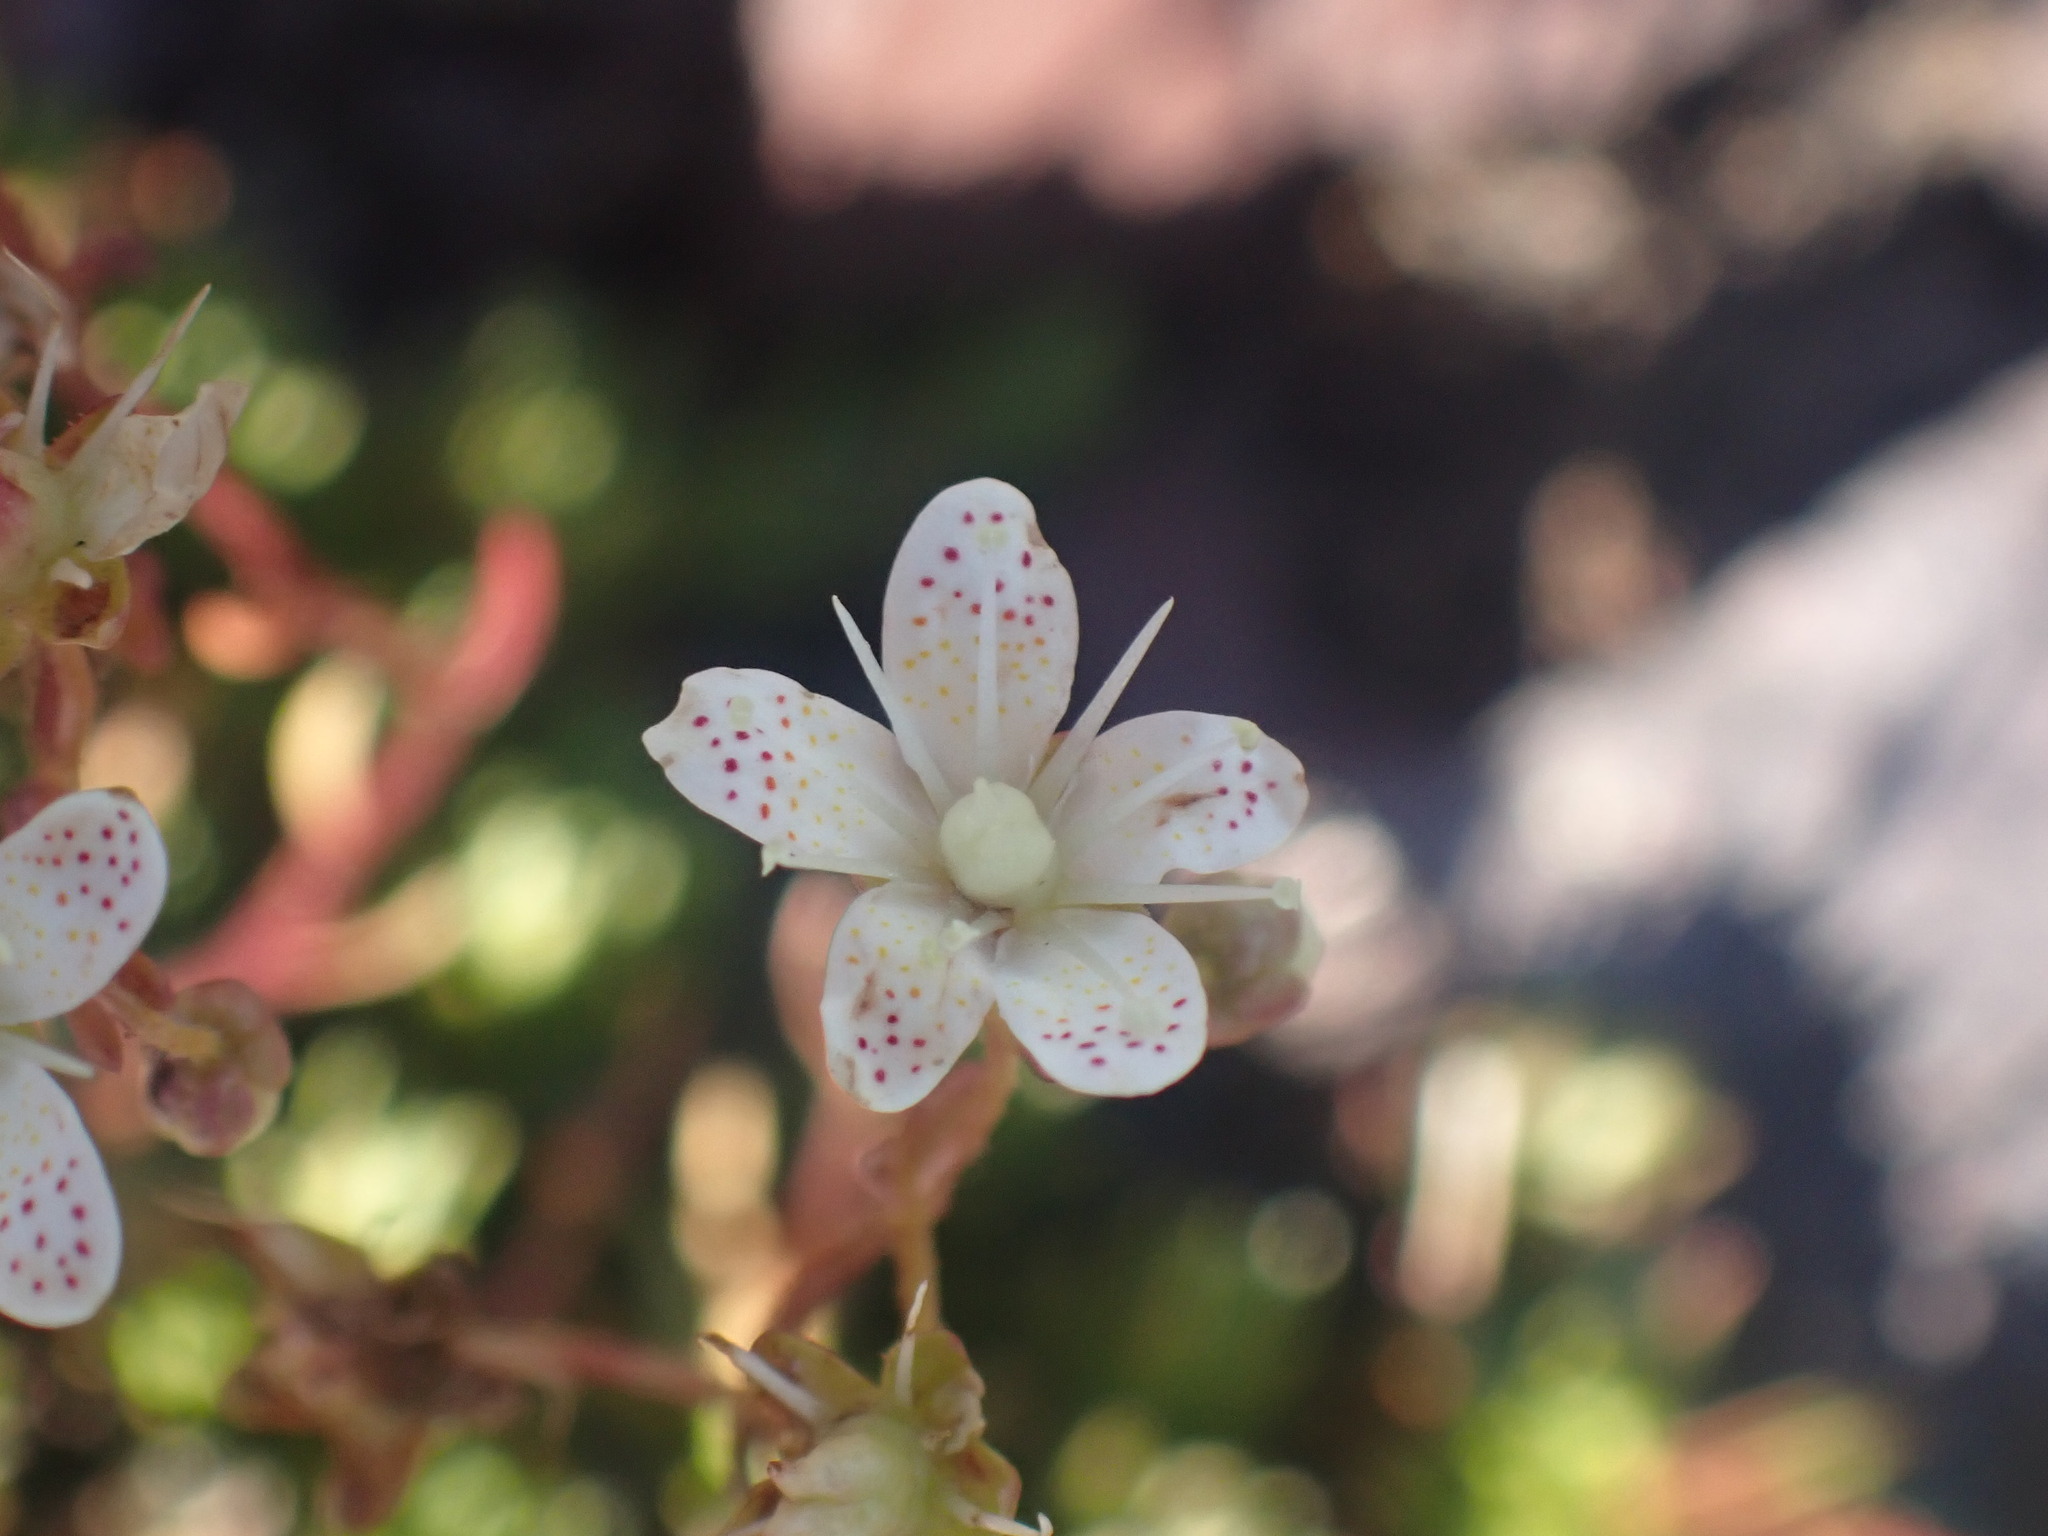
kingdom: Plantae
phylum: Tracheophyta
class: Magnoliopsida
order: Saxifragales
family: Saxifragaceae
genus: Saxifraga
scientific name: Saxifraga bronchialis
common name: Matted saxifrage
